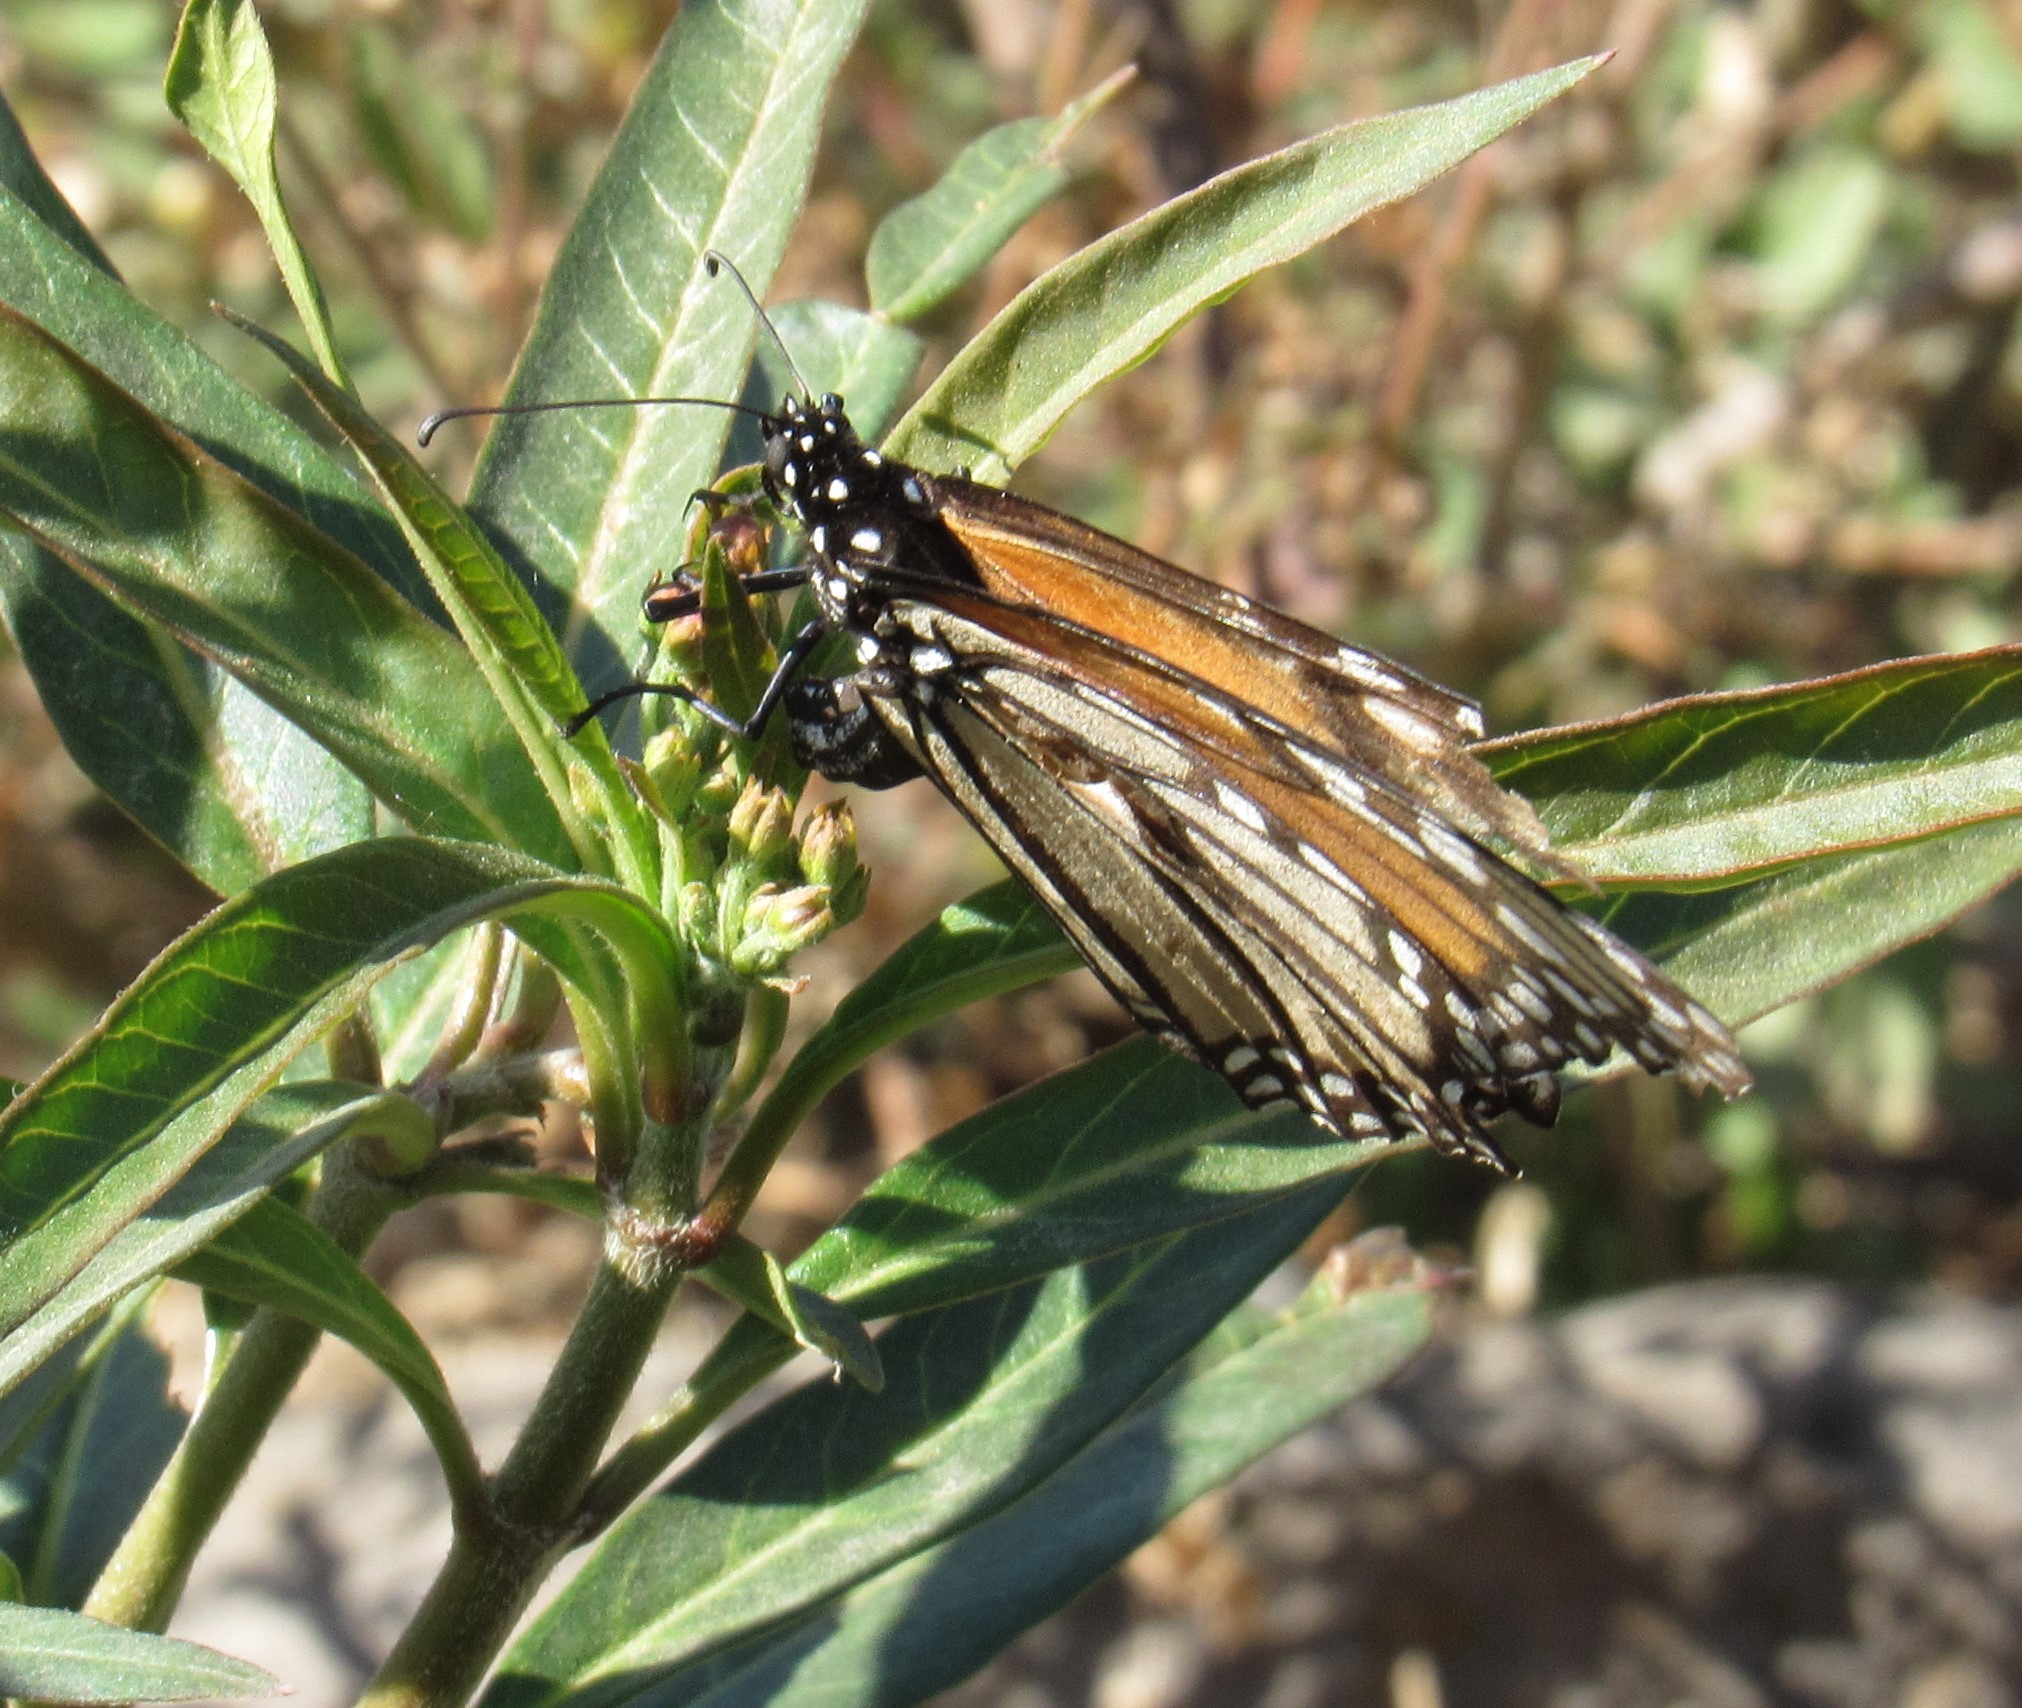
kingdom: Animalia
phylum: Arthropoda
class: Insecta
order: Lepidoptera
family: Nymphalidae
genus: Danaus
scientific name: Danaus plexippus
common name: Monarch
